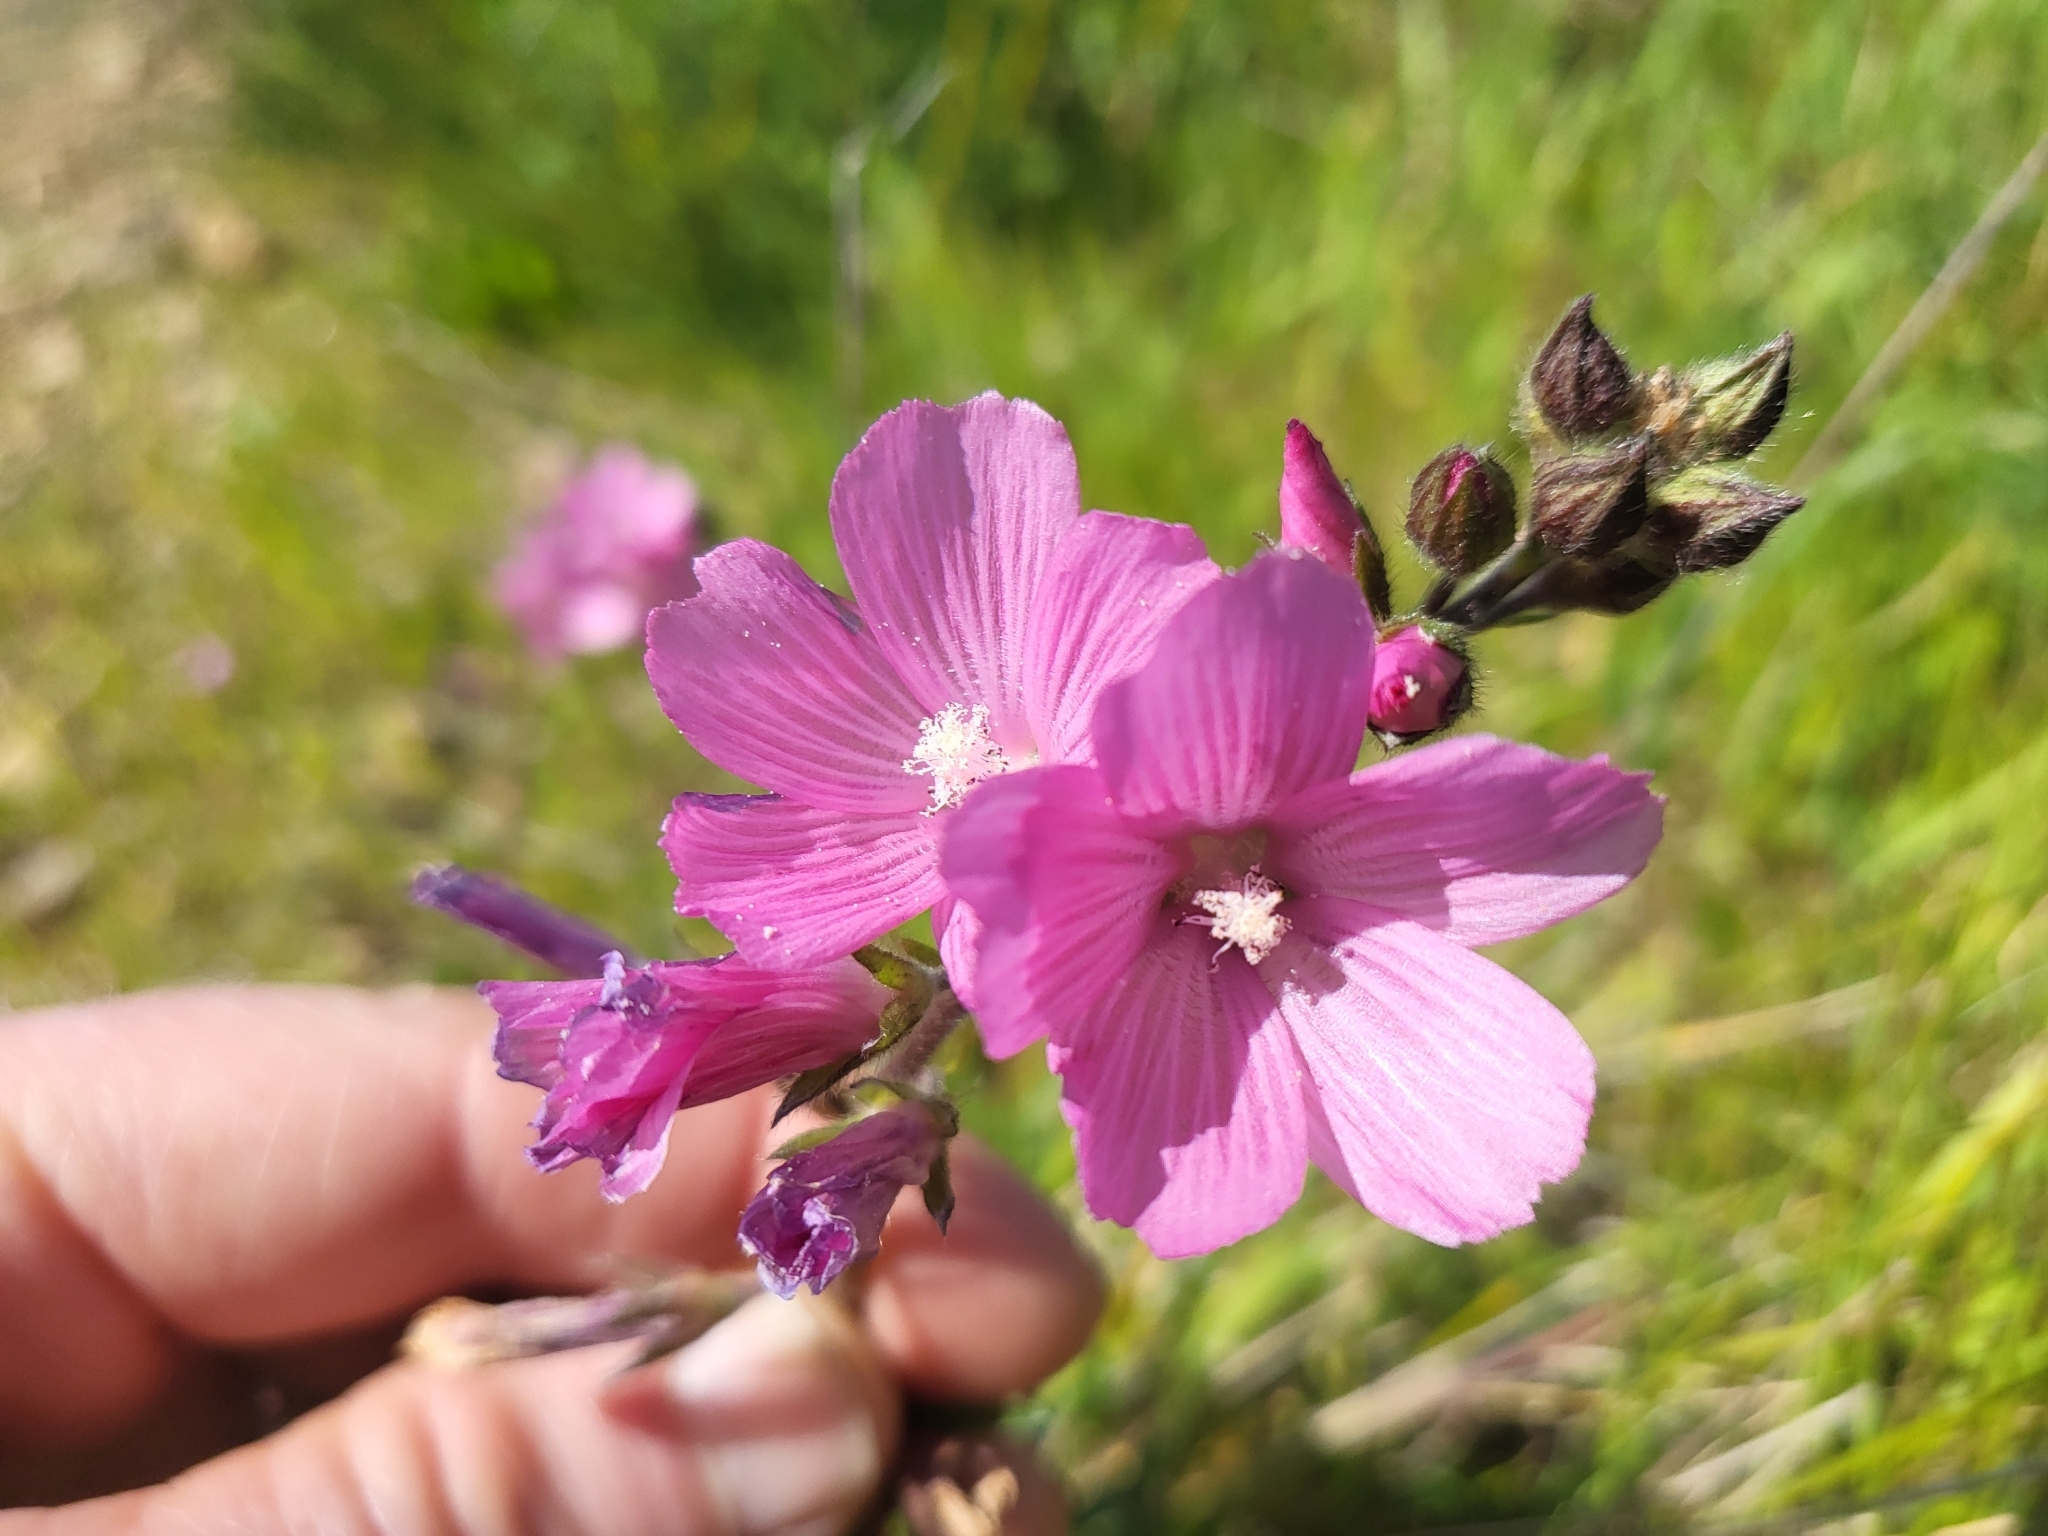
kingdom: Plantae
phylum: Tracheophyta
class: Magnoliopsida
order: Malvales
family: Malvaceae
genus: Sidalcea
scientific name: Sidalcea malviflora
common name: Greek mallow
